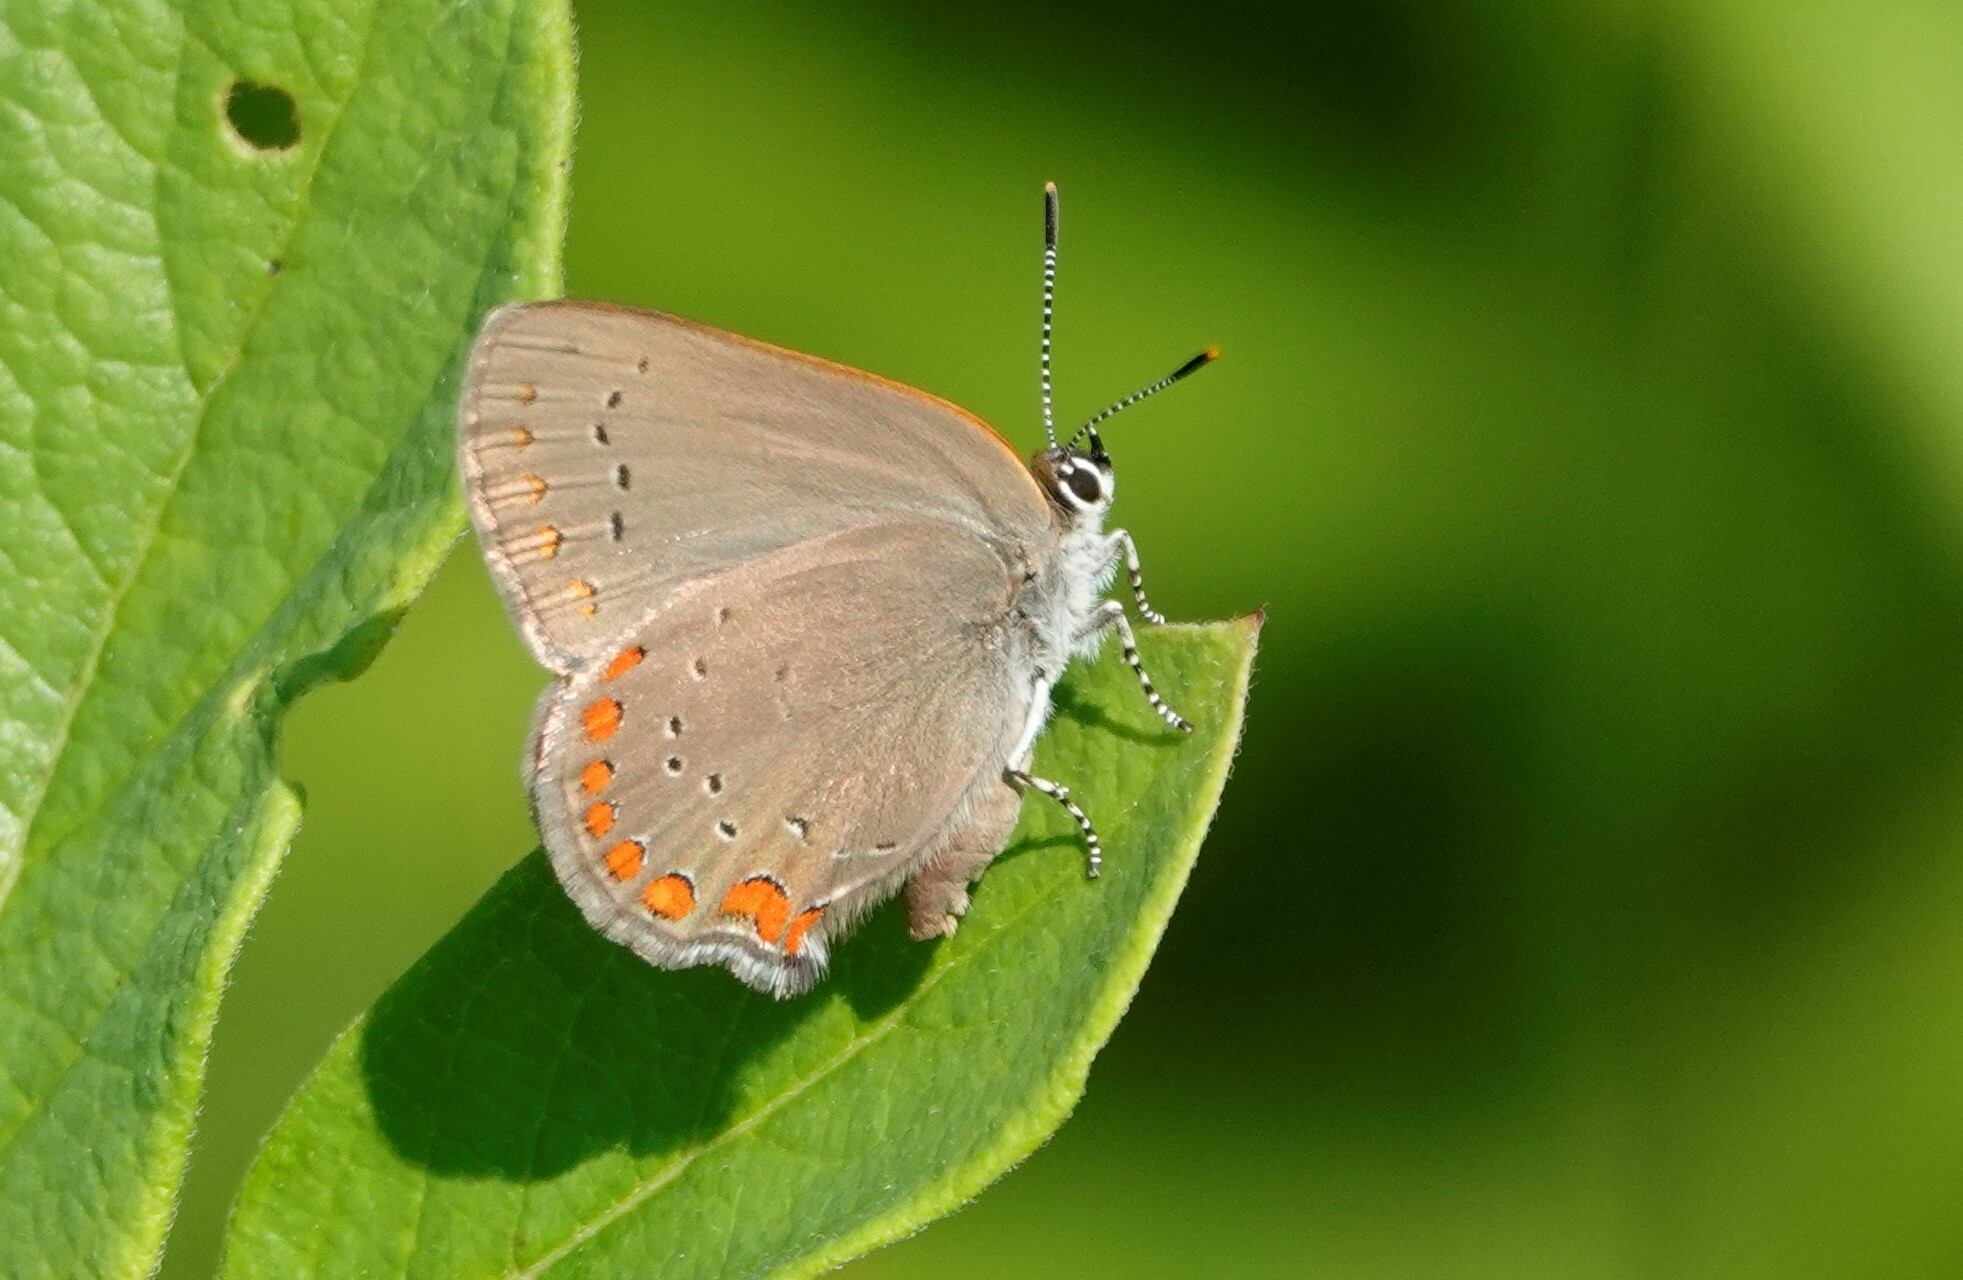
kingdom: Animalia
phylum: Arthropoda
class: Insecta
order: Lepidoptera
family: Lycaenidae
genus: Harkenclenus
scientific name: Harkenclenus titus
